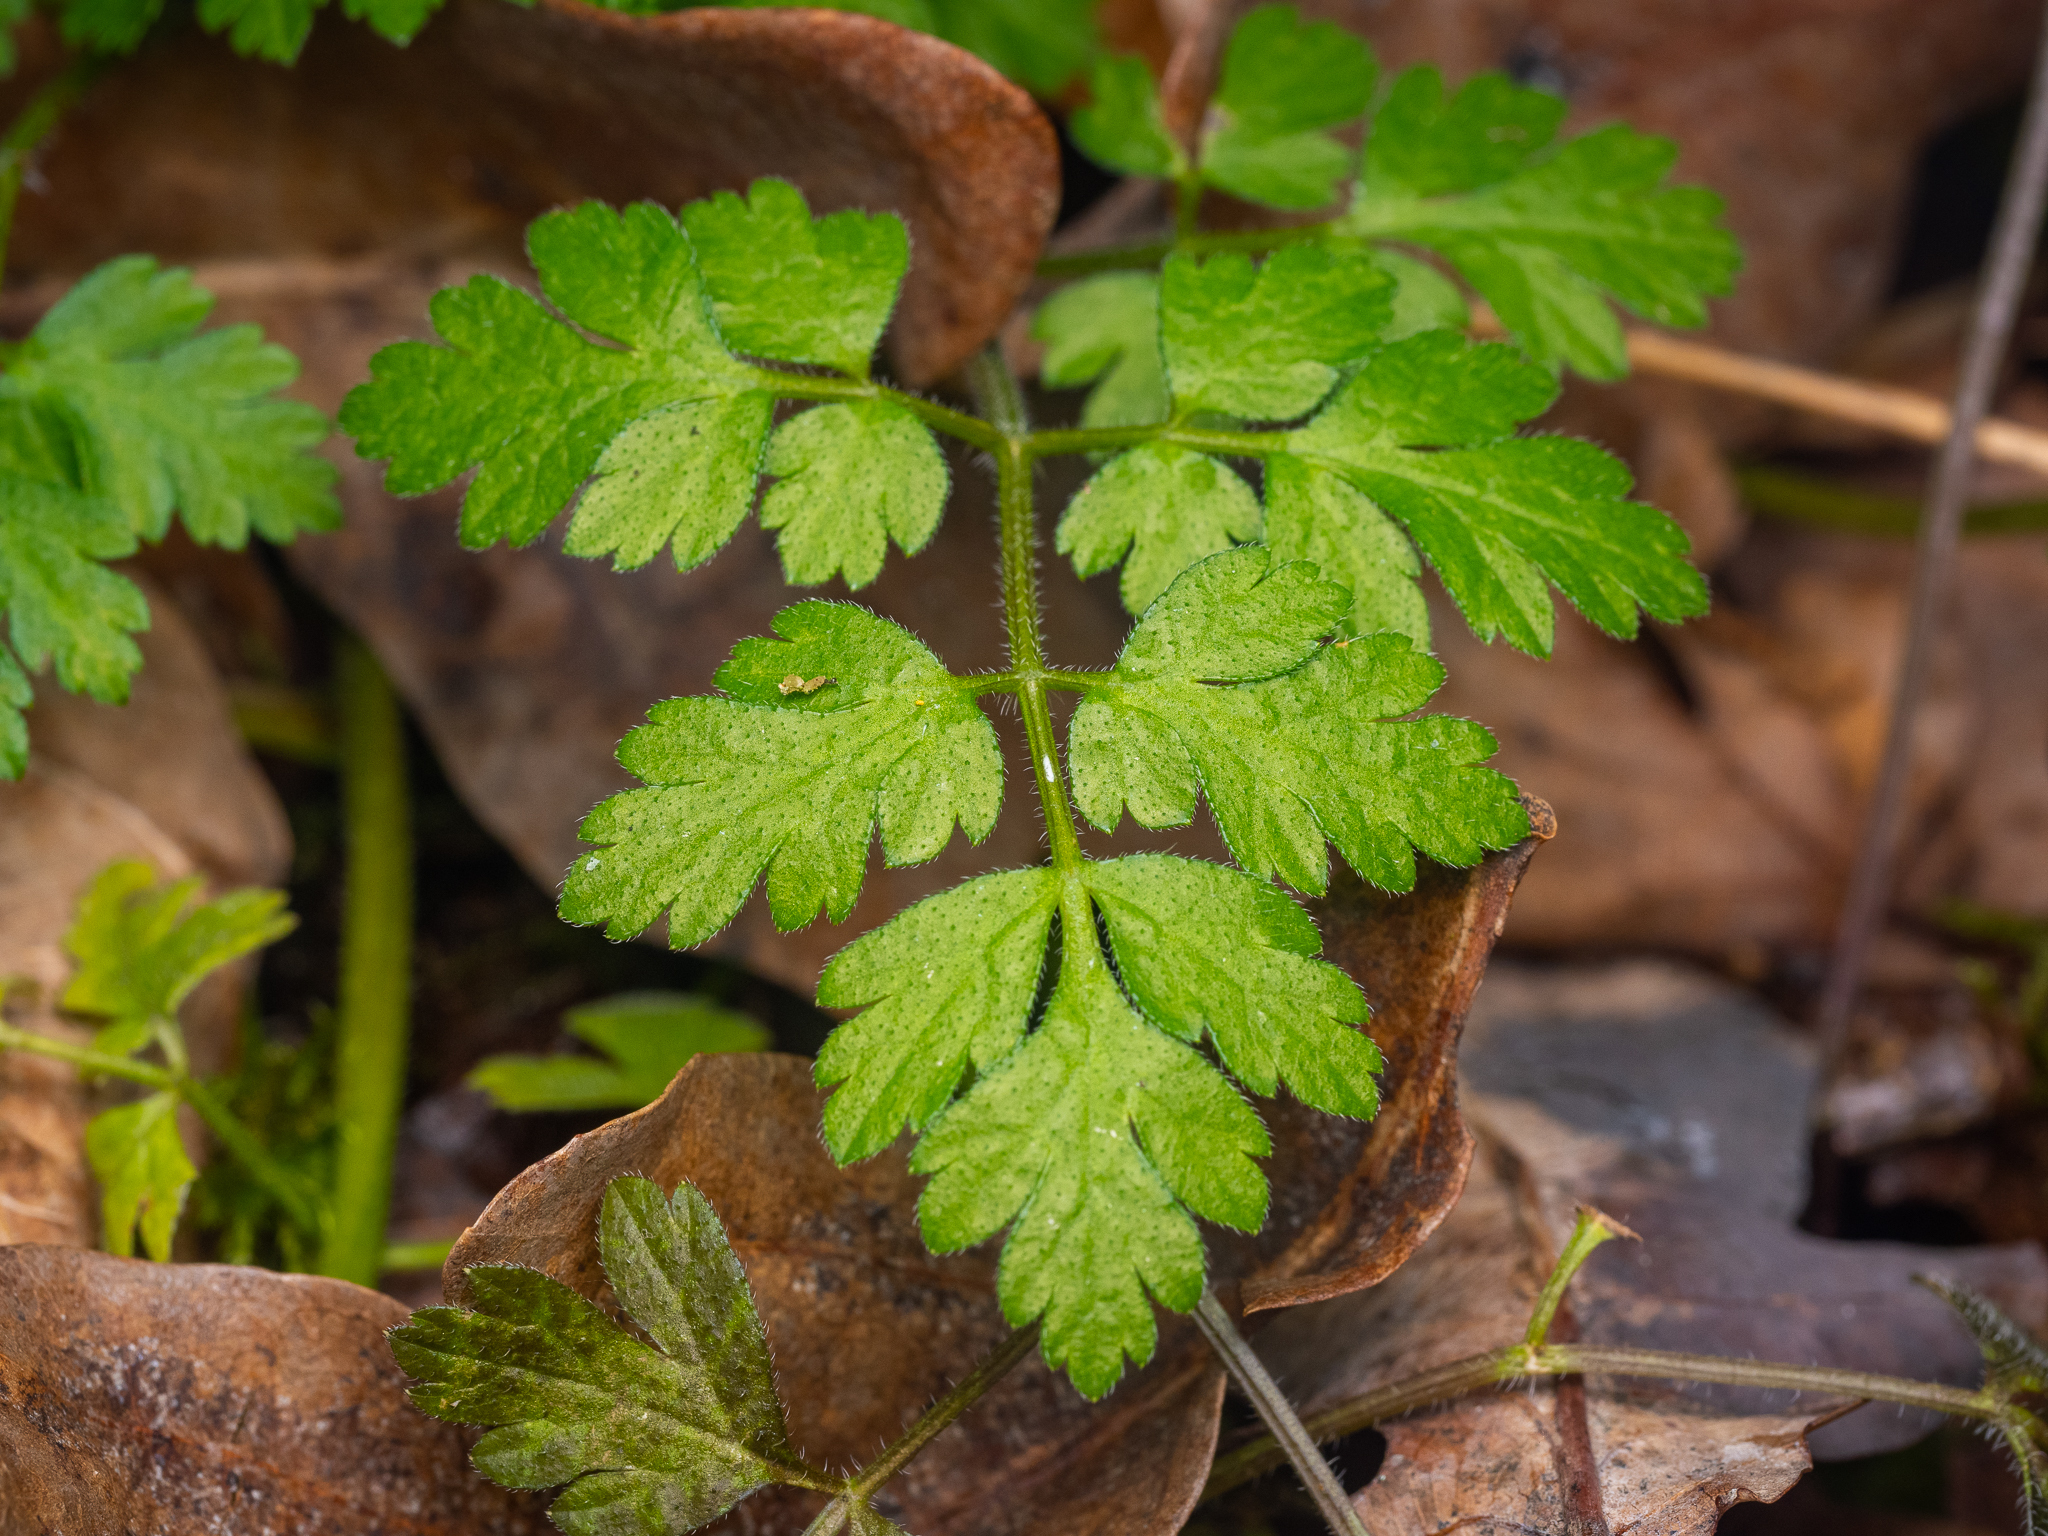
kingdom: Plantae
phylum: Tracheophyta
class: Magnoliopsida
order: Apiales
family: Apiaceae
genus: Chaerophyllum
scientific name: Chaerophyllum temulum
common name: Rough chervil
